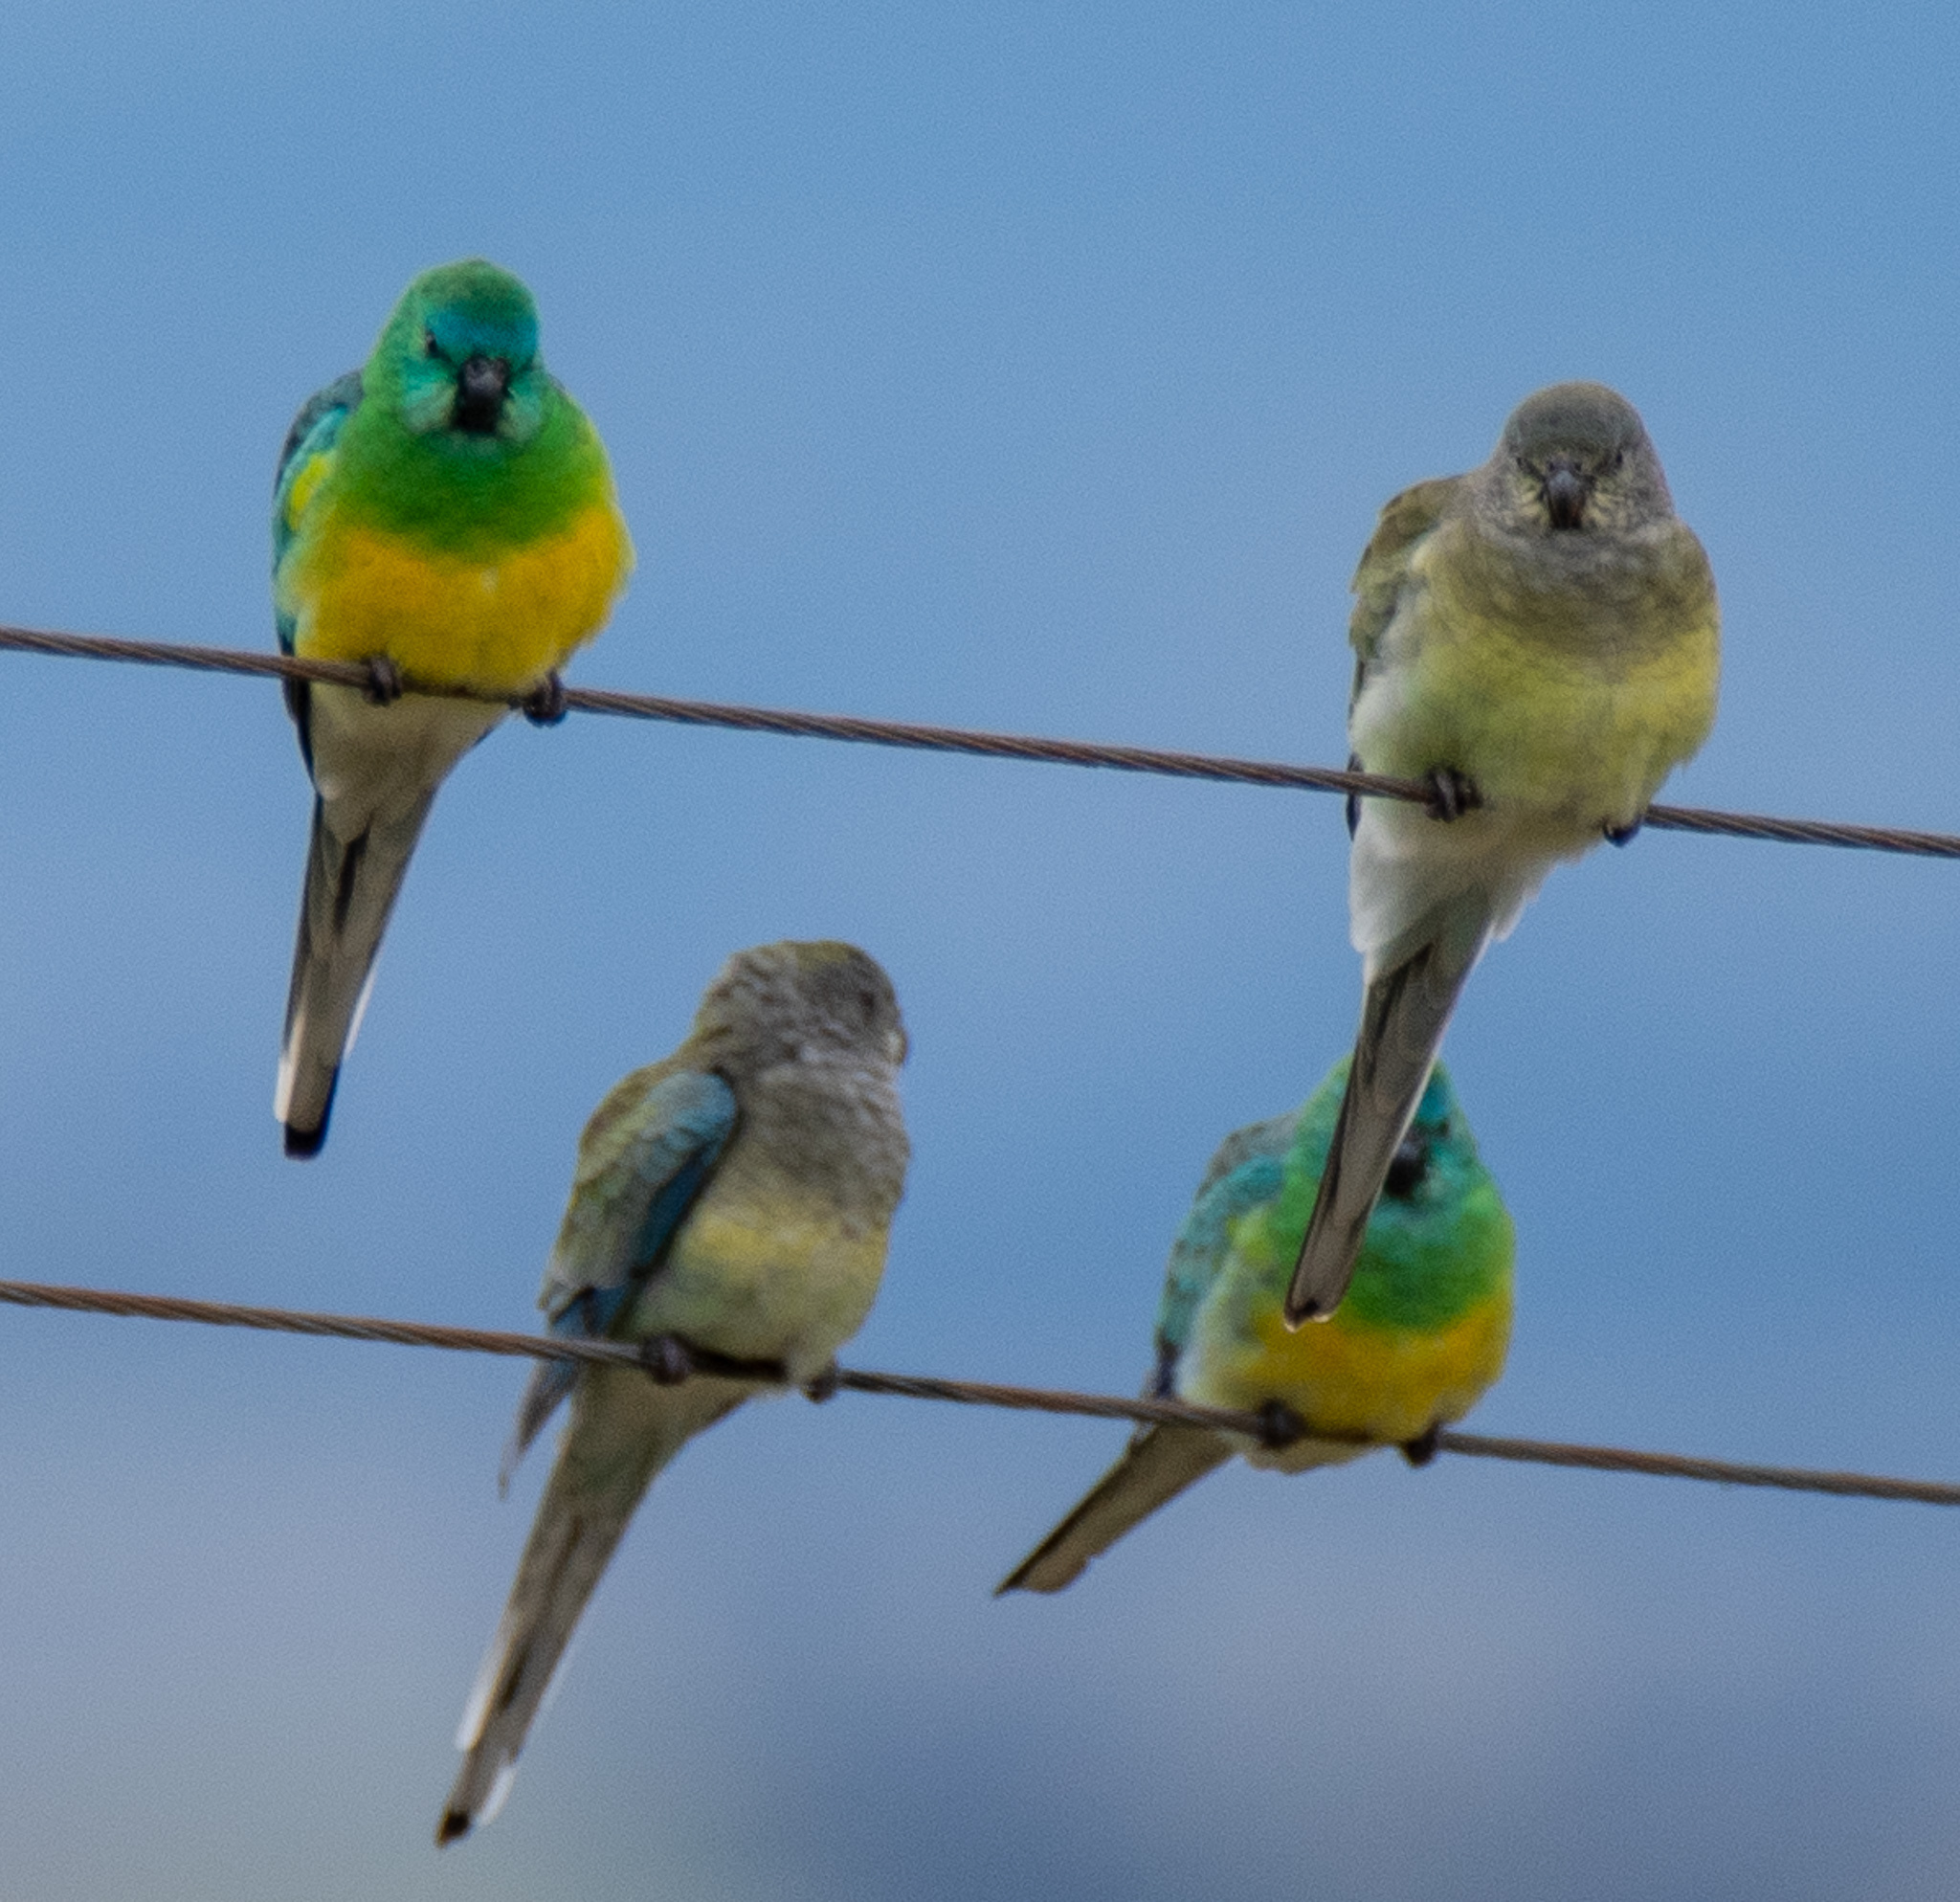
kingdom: Animalia
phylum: Chordata
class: Aves
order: Psittaciformes
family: Psittacidae
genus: Psephotus
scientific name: Psephotus haematonotus
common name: Red-rumped parrot
